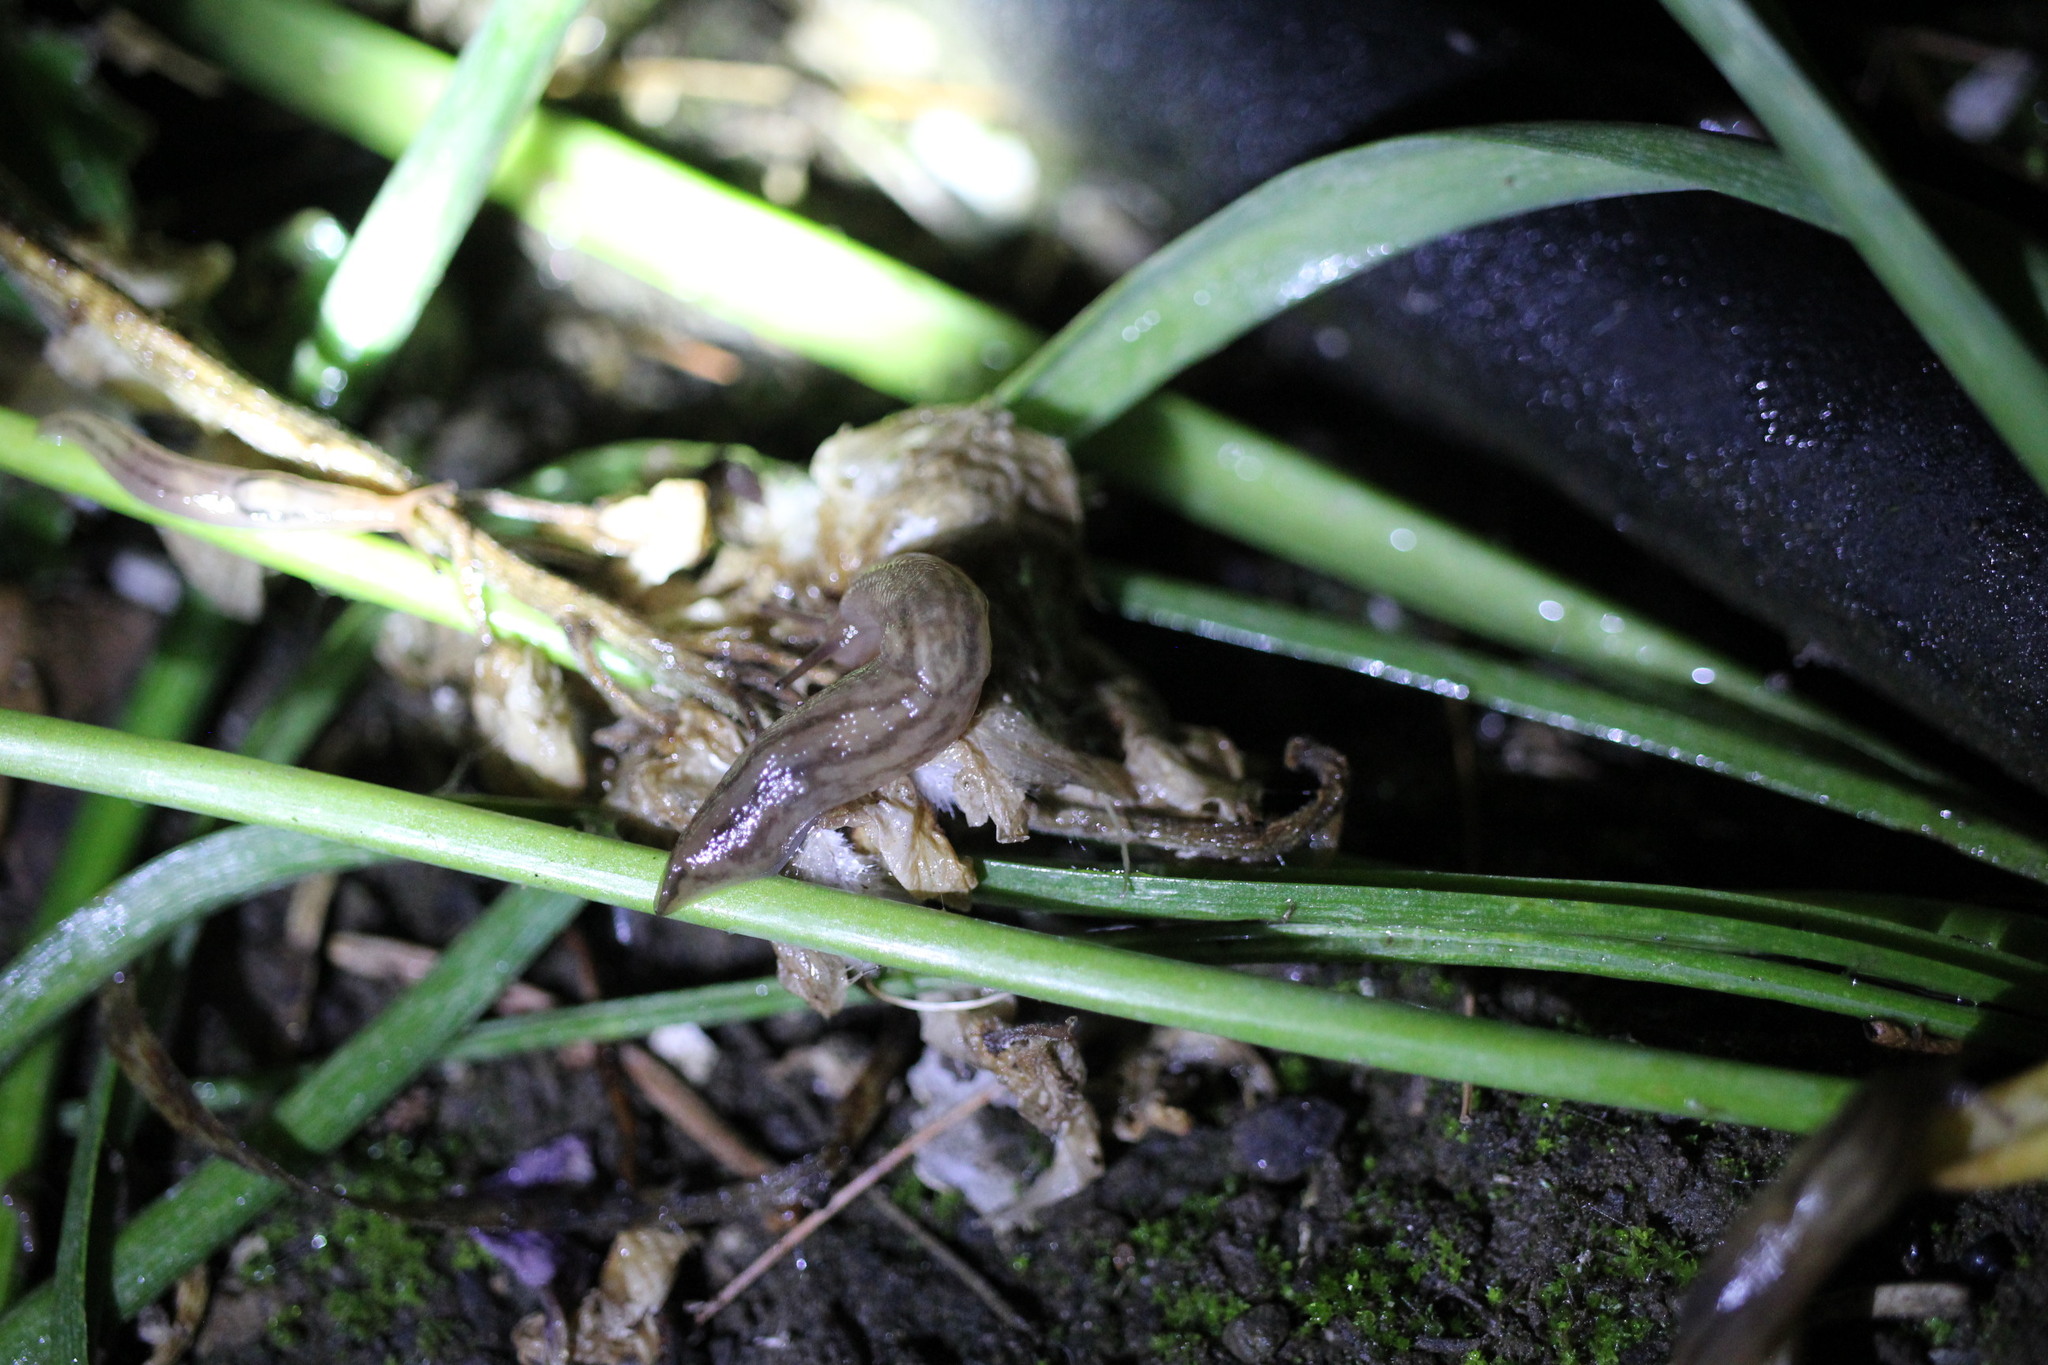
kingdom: Animalia
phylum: Mollusca
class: Gastropoda
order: Stylommatophora
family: Limacidae
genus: Ambigolimax
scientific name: Ambigolimax
